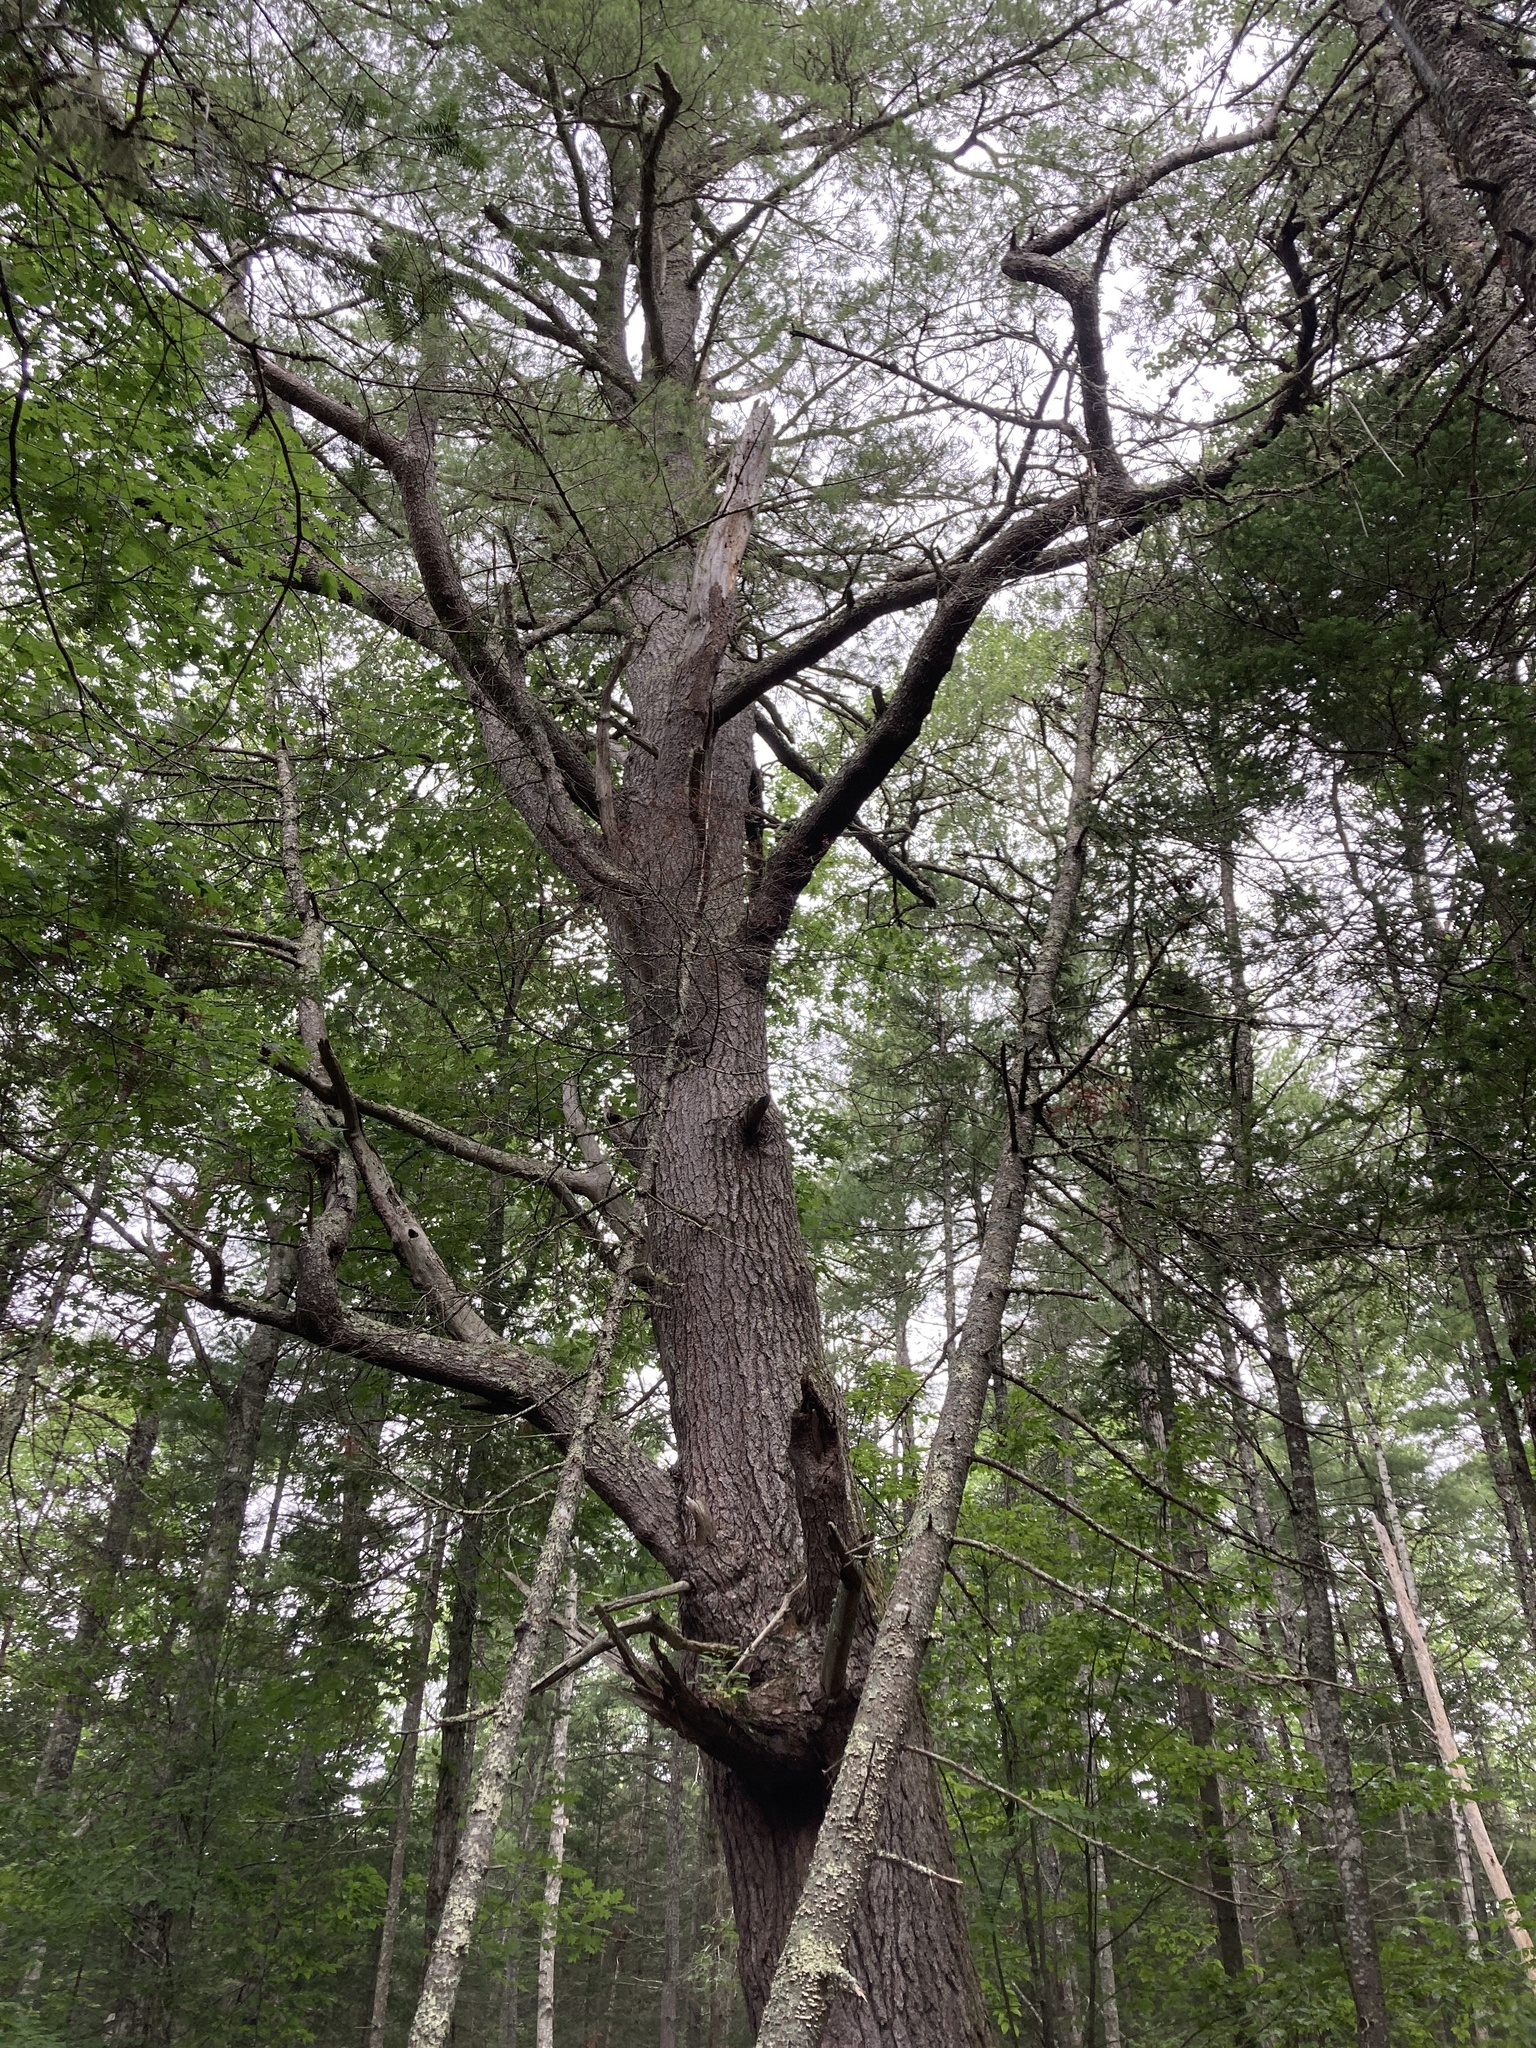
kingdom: Plantae
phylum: Tracheophyta
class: Pinopsida
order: Pinales
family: Pinaceae
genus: Pinus
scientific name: Pinus strobus
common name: Weymouth pine
